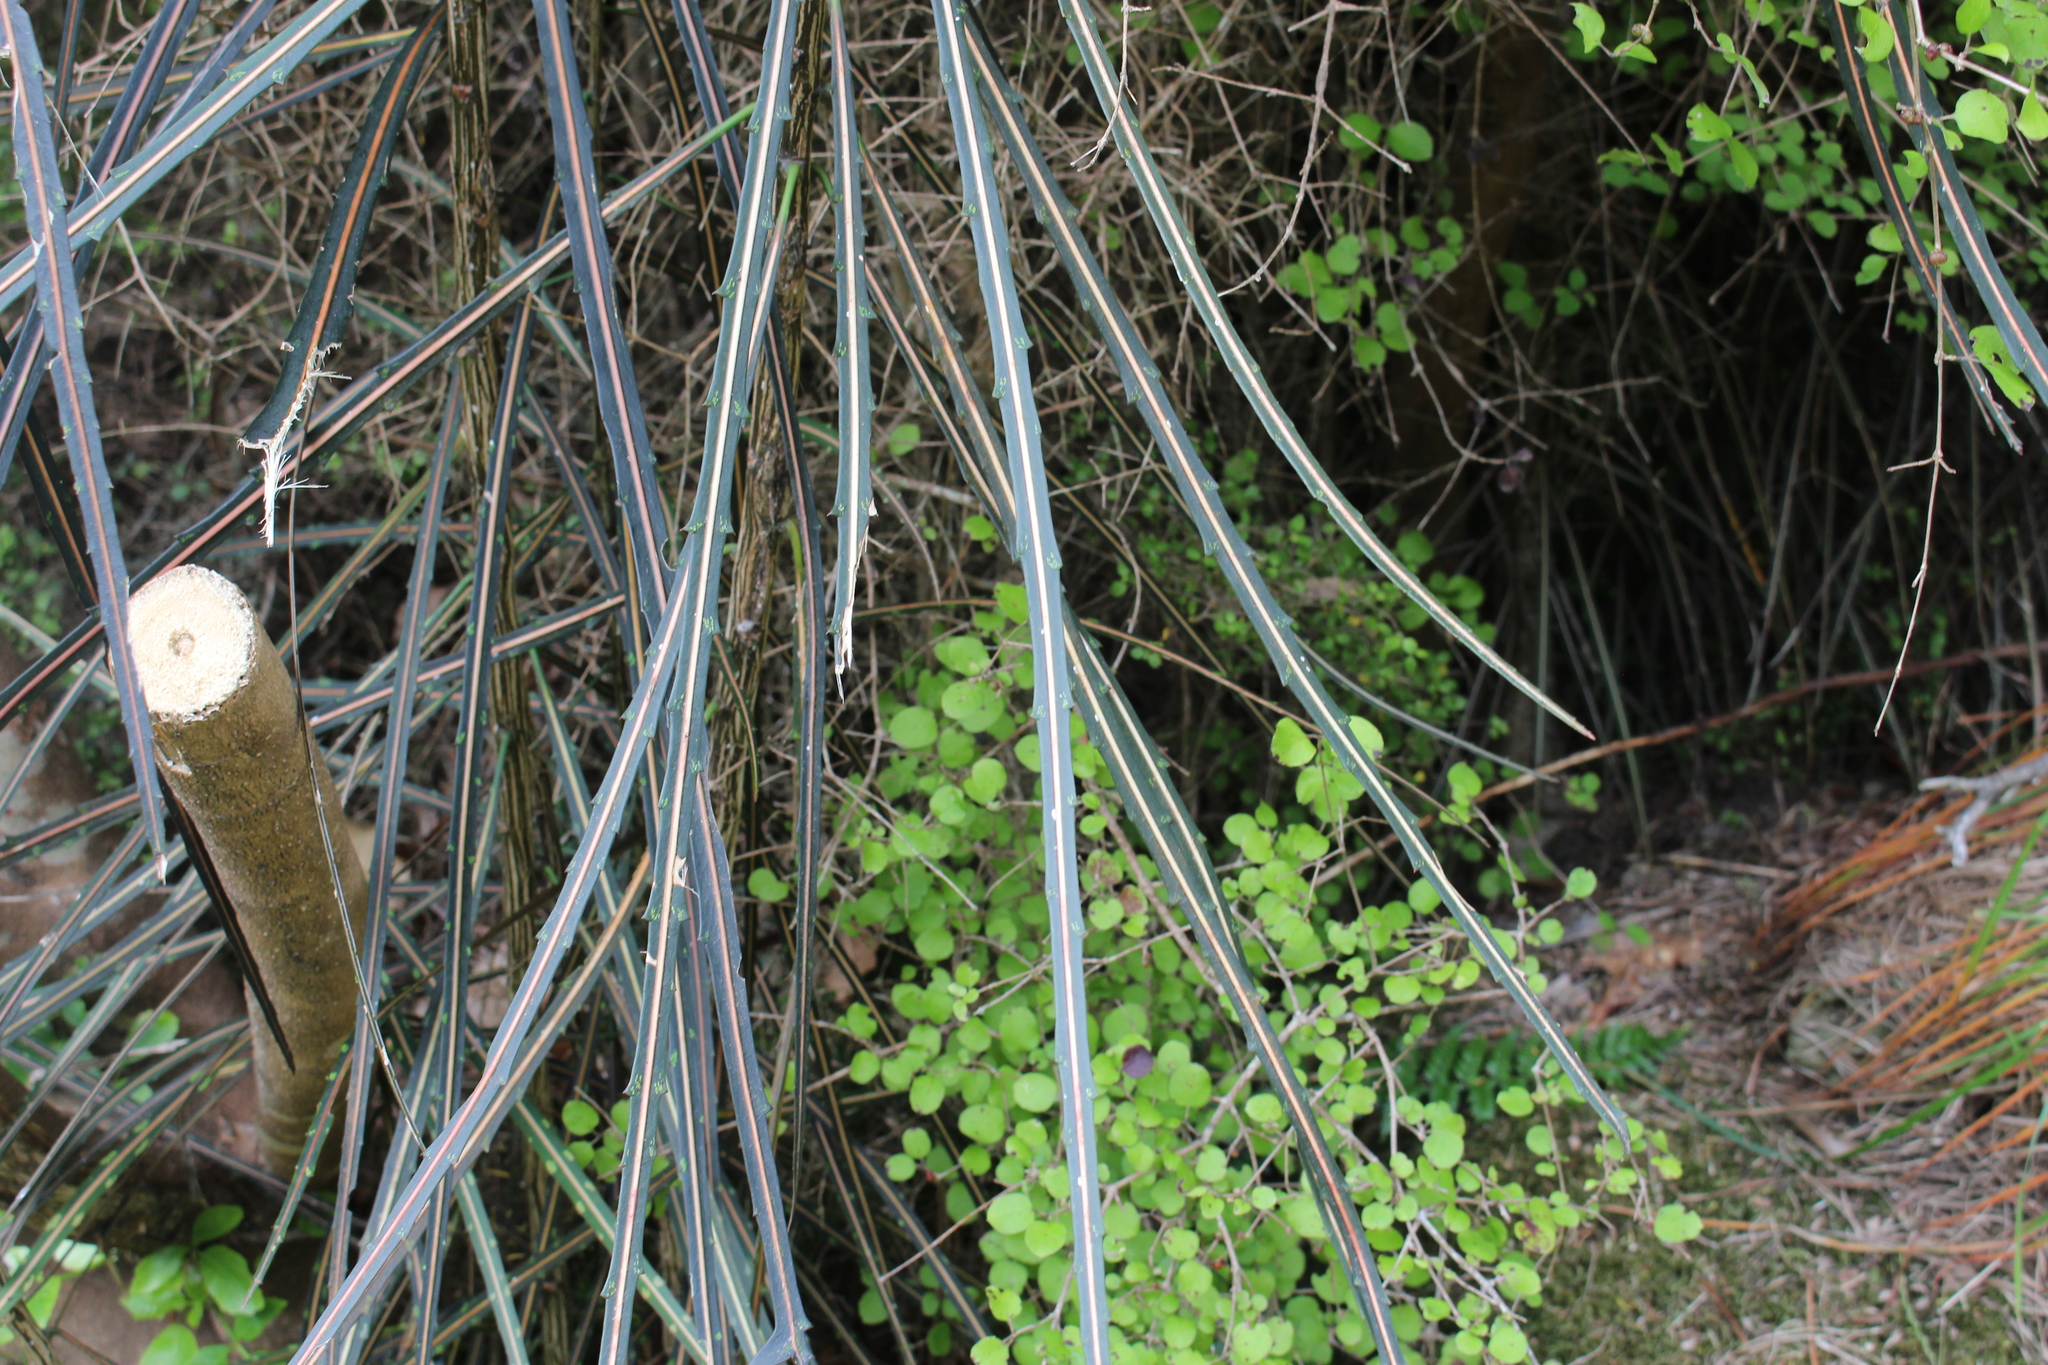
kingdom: Plantae
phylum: Tracheophyta
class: Magnoliopsida
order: Apiales
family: Araliaceae
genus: Pseudopanax
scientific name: Pseudopanax crassifolius
